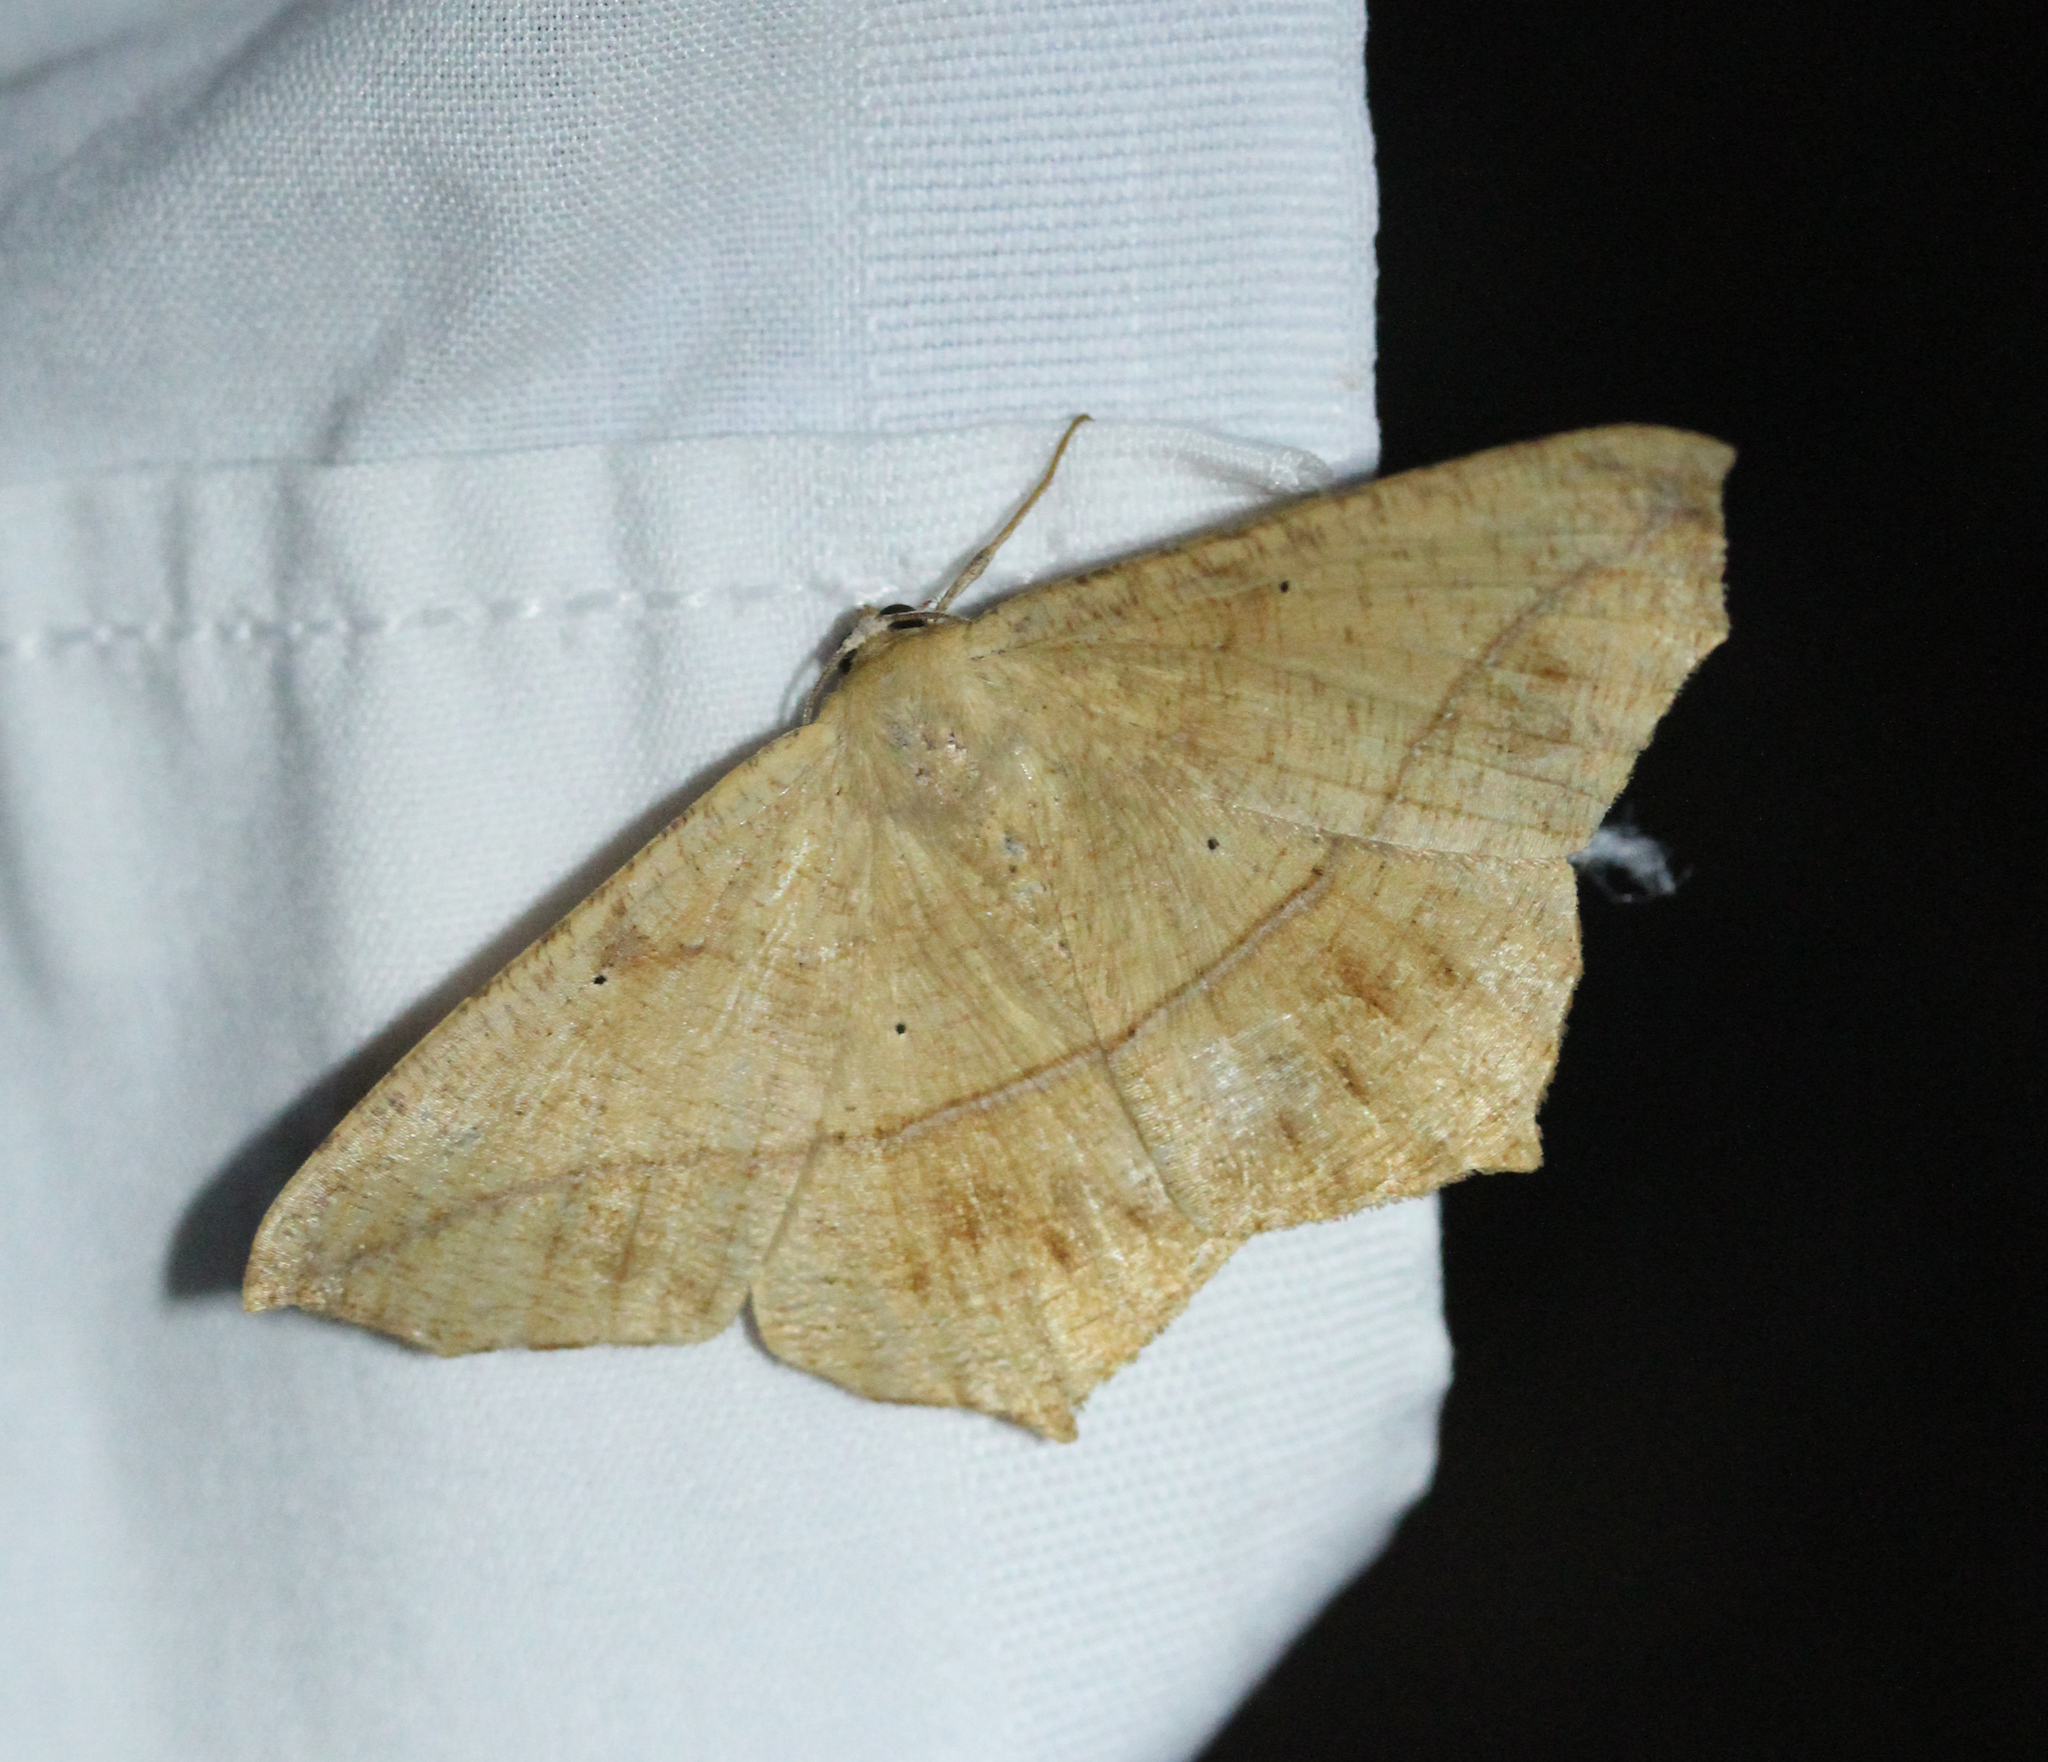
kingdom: Animalia
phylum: Arthropoda
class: Insecta
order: Lepidoptera
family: Geometridae
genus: Prochoerodes
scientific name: Prochoerodes lineola
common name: Large maple spanworm
